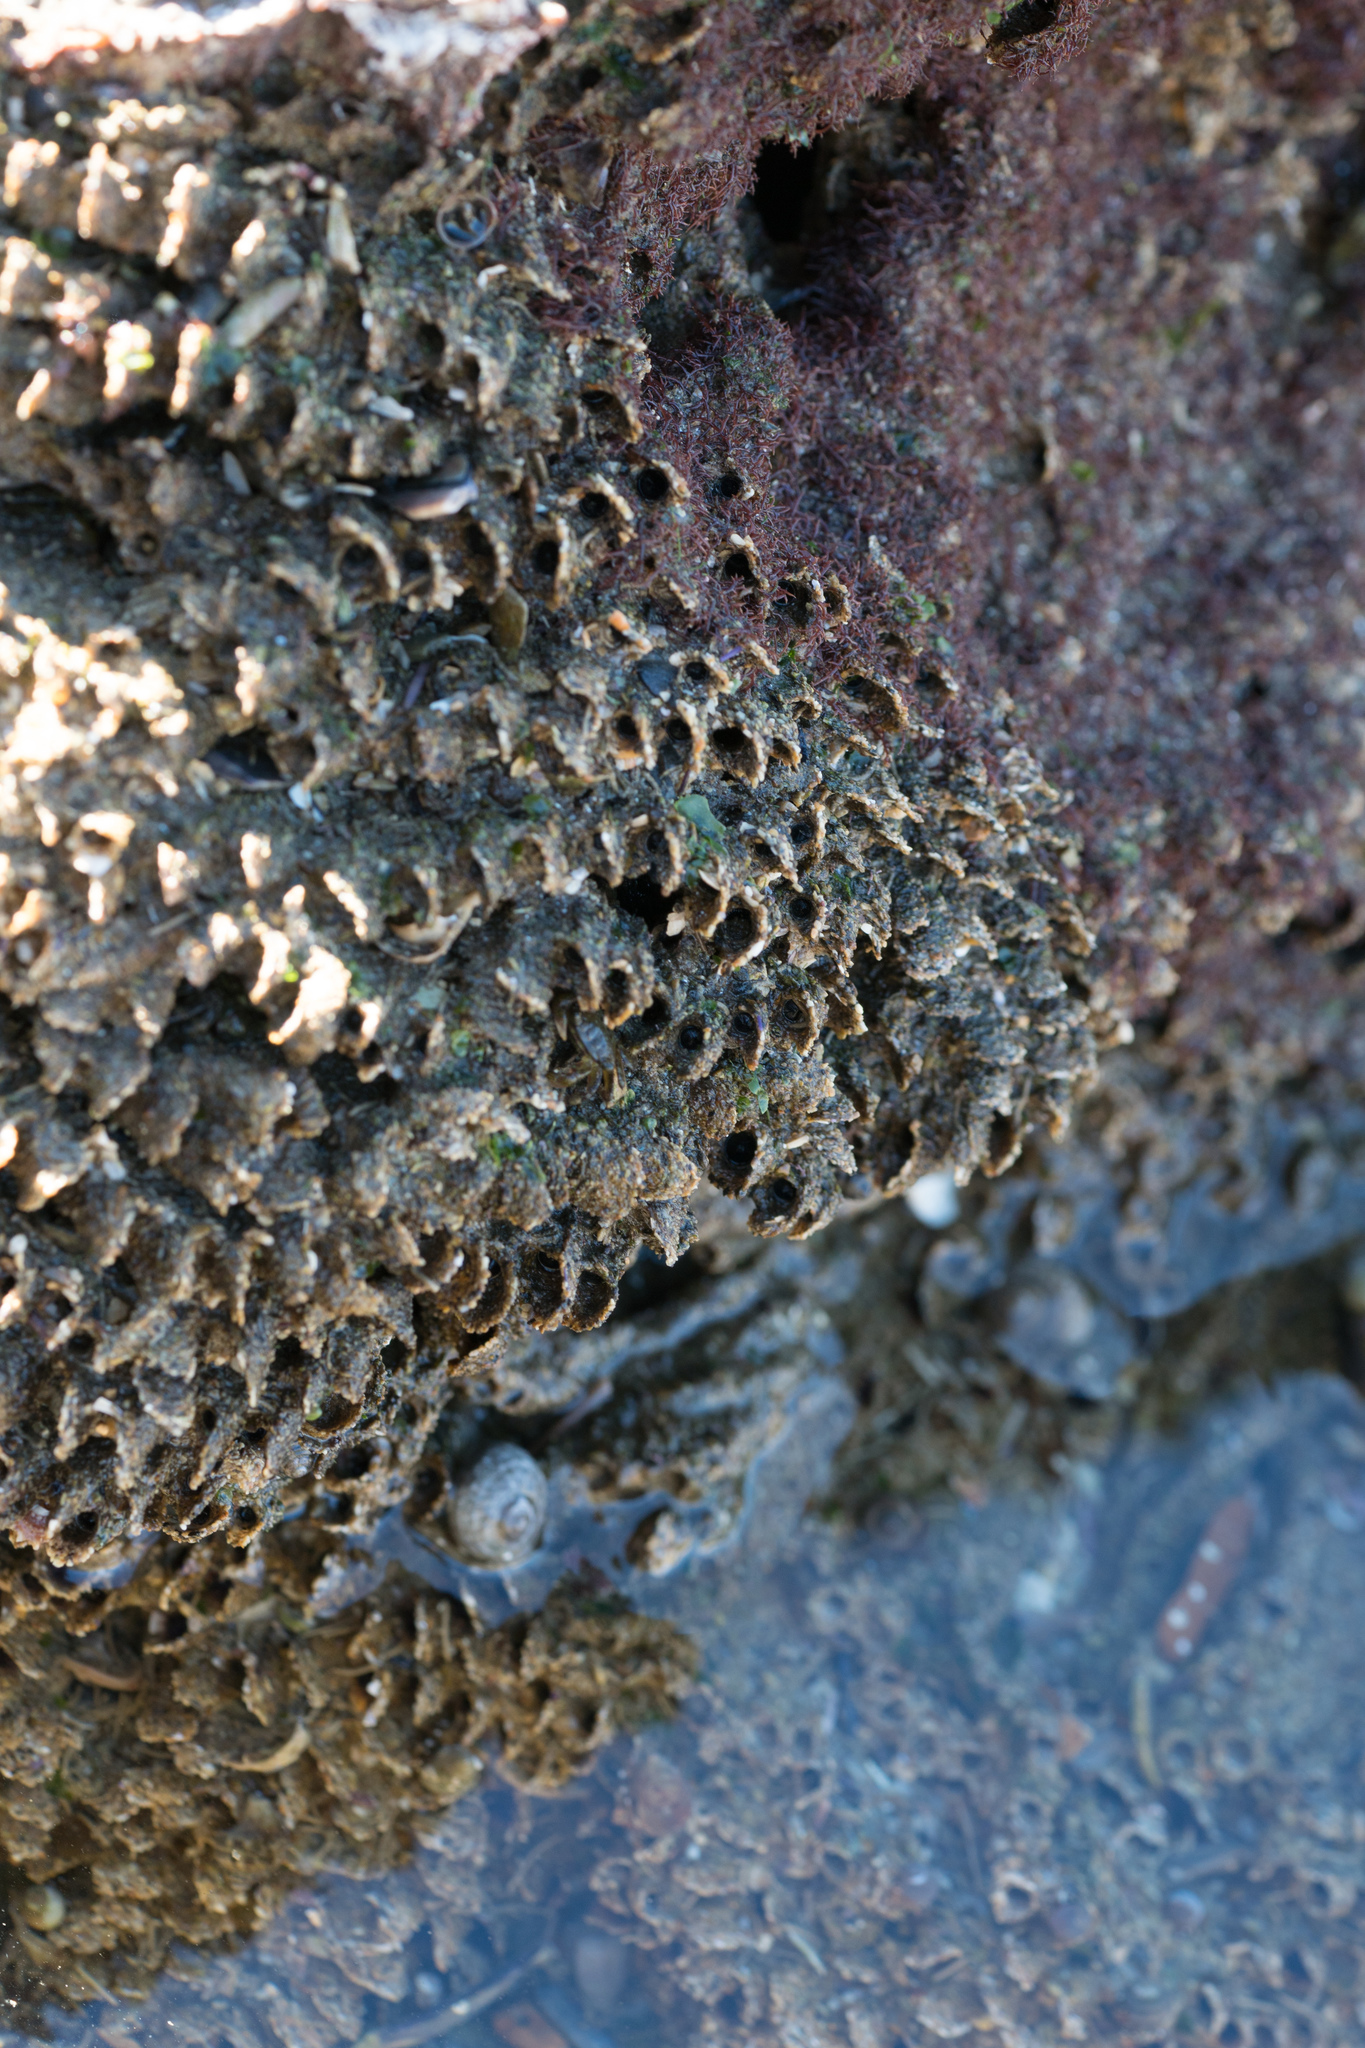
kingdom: Animalia
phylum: Annelida
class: Polychaeta
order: Sabellida
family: Sabellariidae
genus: Phragmatopoma
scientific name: Phragmatopoma californica
